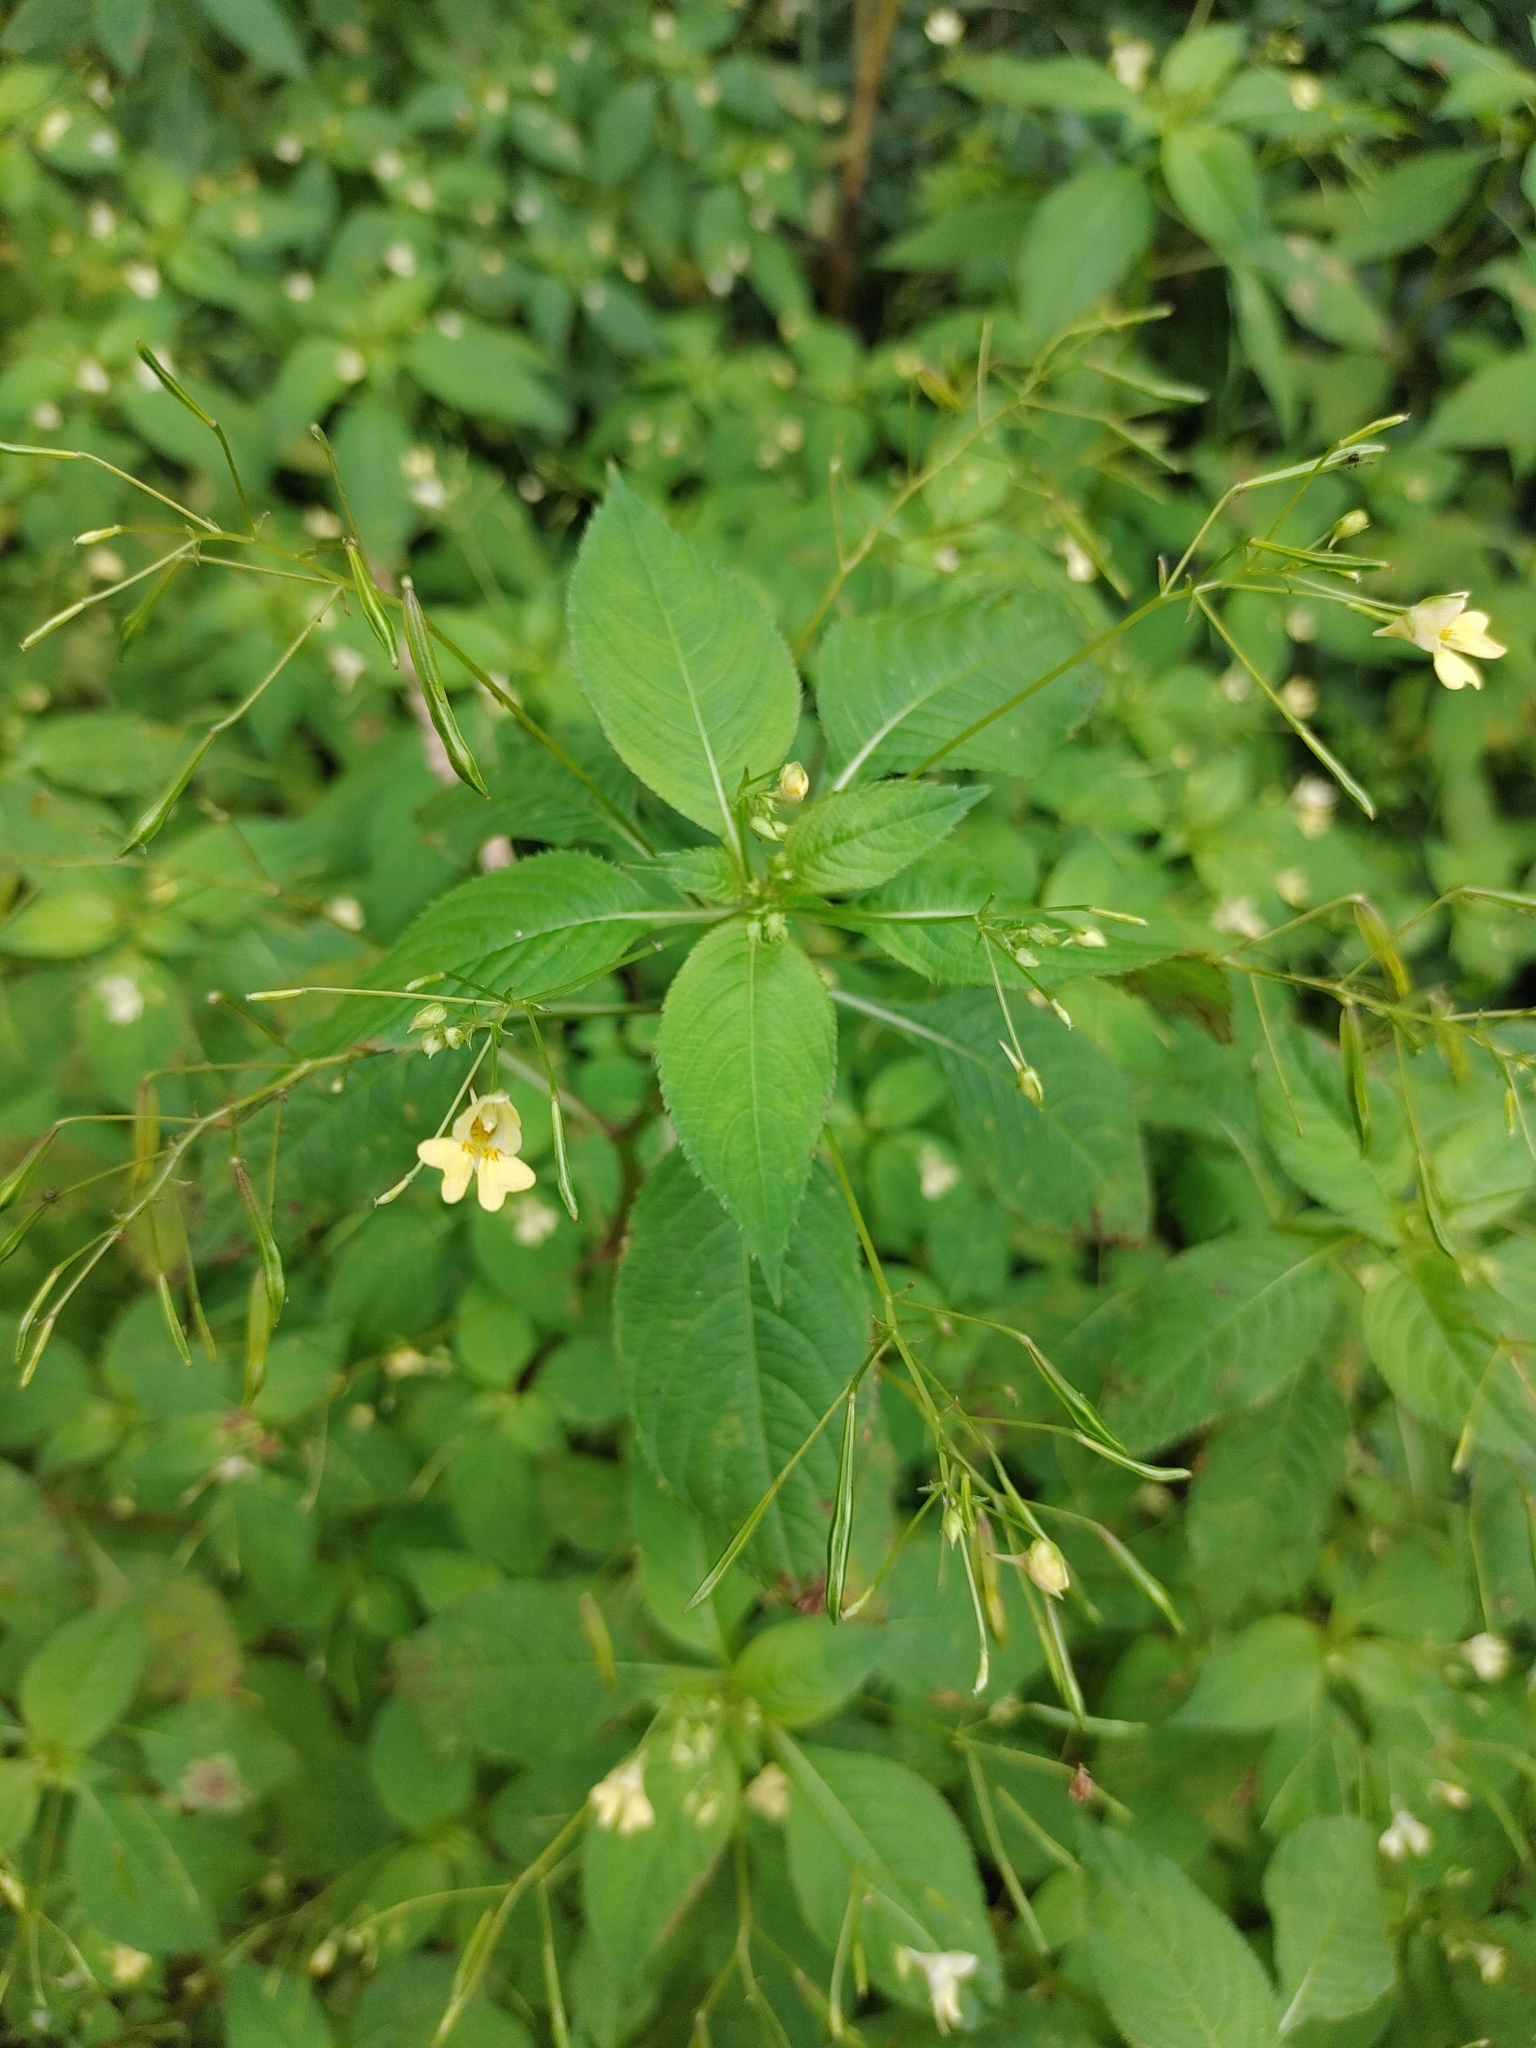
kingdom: Plantae
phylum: Tracheophyta
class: Magnoliopsida
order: Ericales
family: Balsaminaceae
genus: Impatiens
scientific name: Impatiens parviflora
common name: Small balsam
